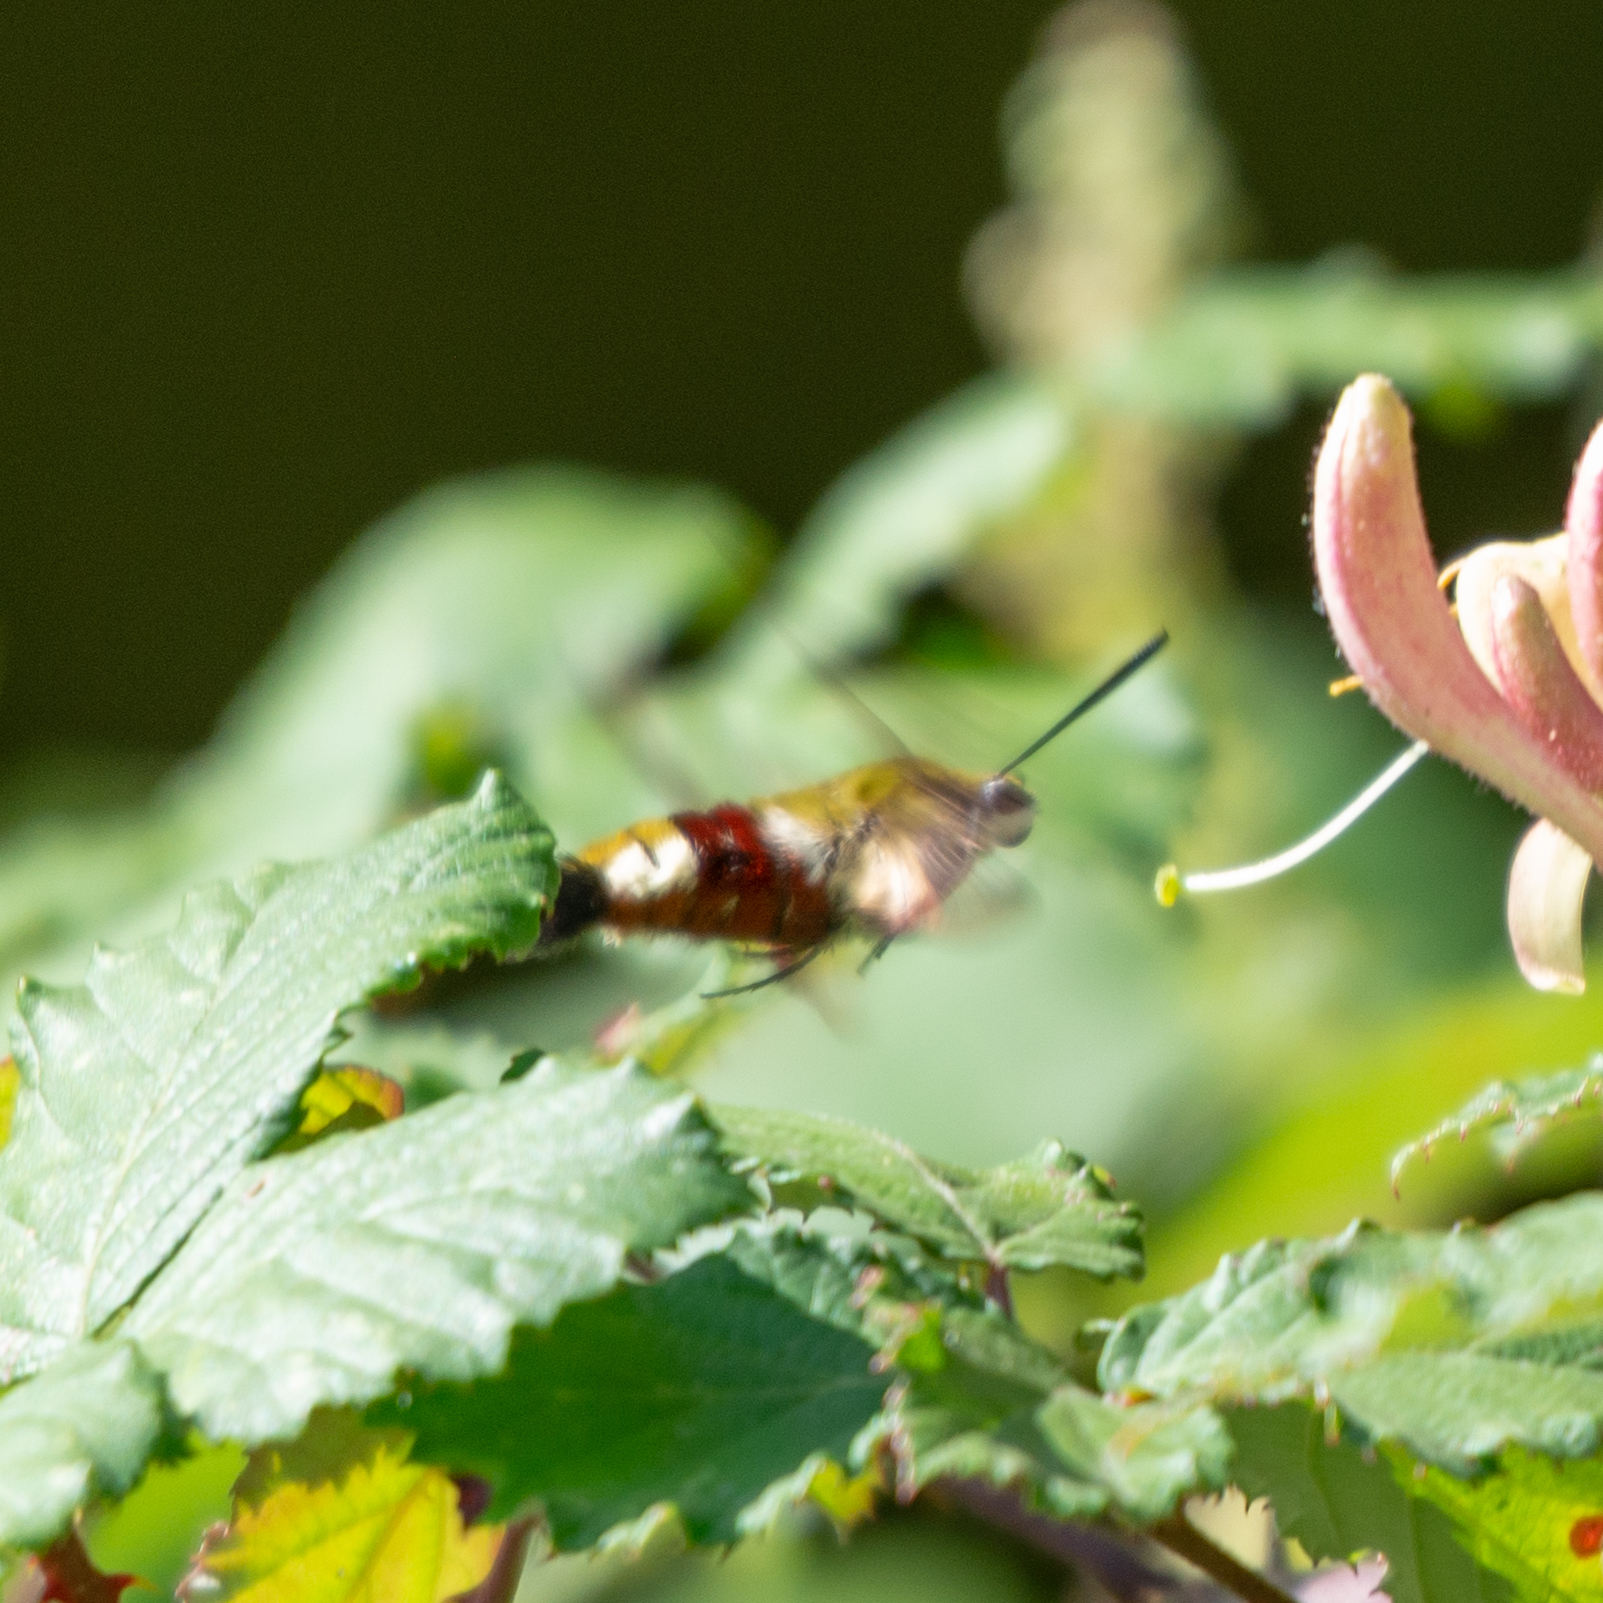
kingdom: Animalia
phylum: Arthropoda
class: Insecta
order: Lepidoptera
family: Sphingidae
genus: Hemaris
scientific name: Hemaris fuciformis
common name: Broad-bordered bee hawk-moth
